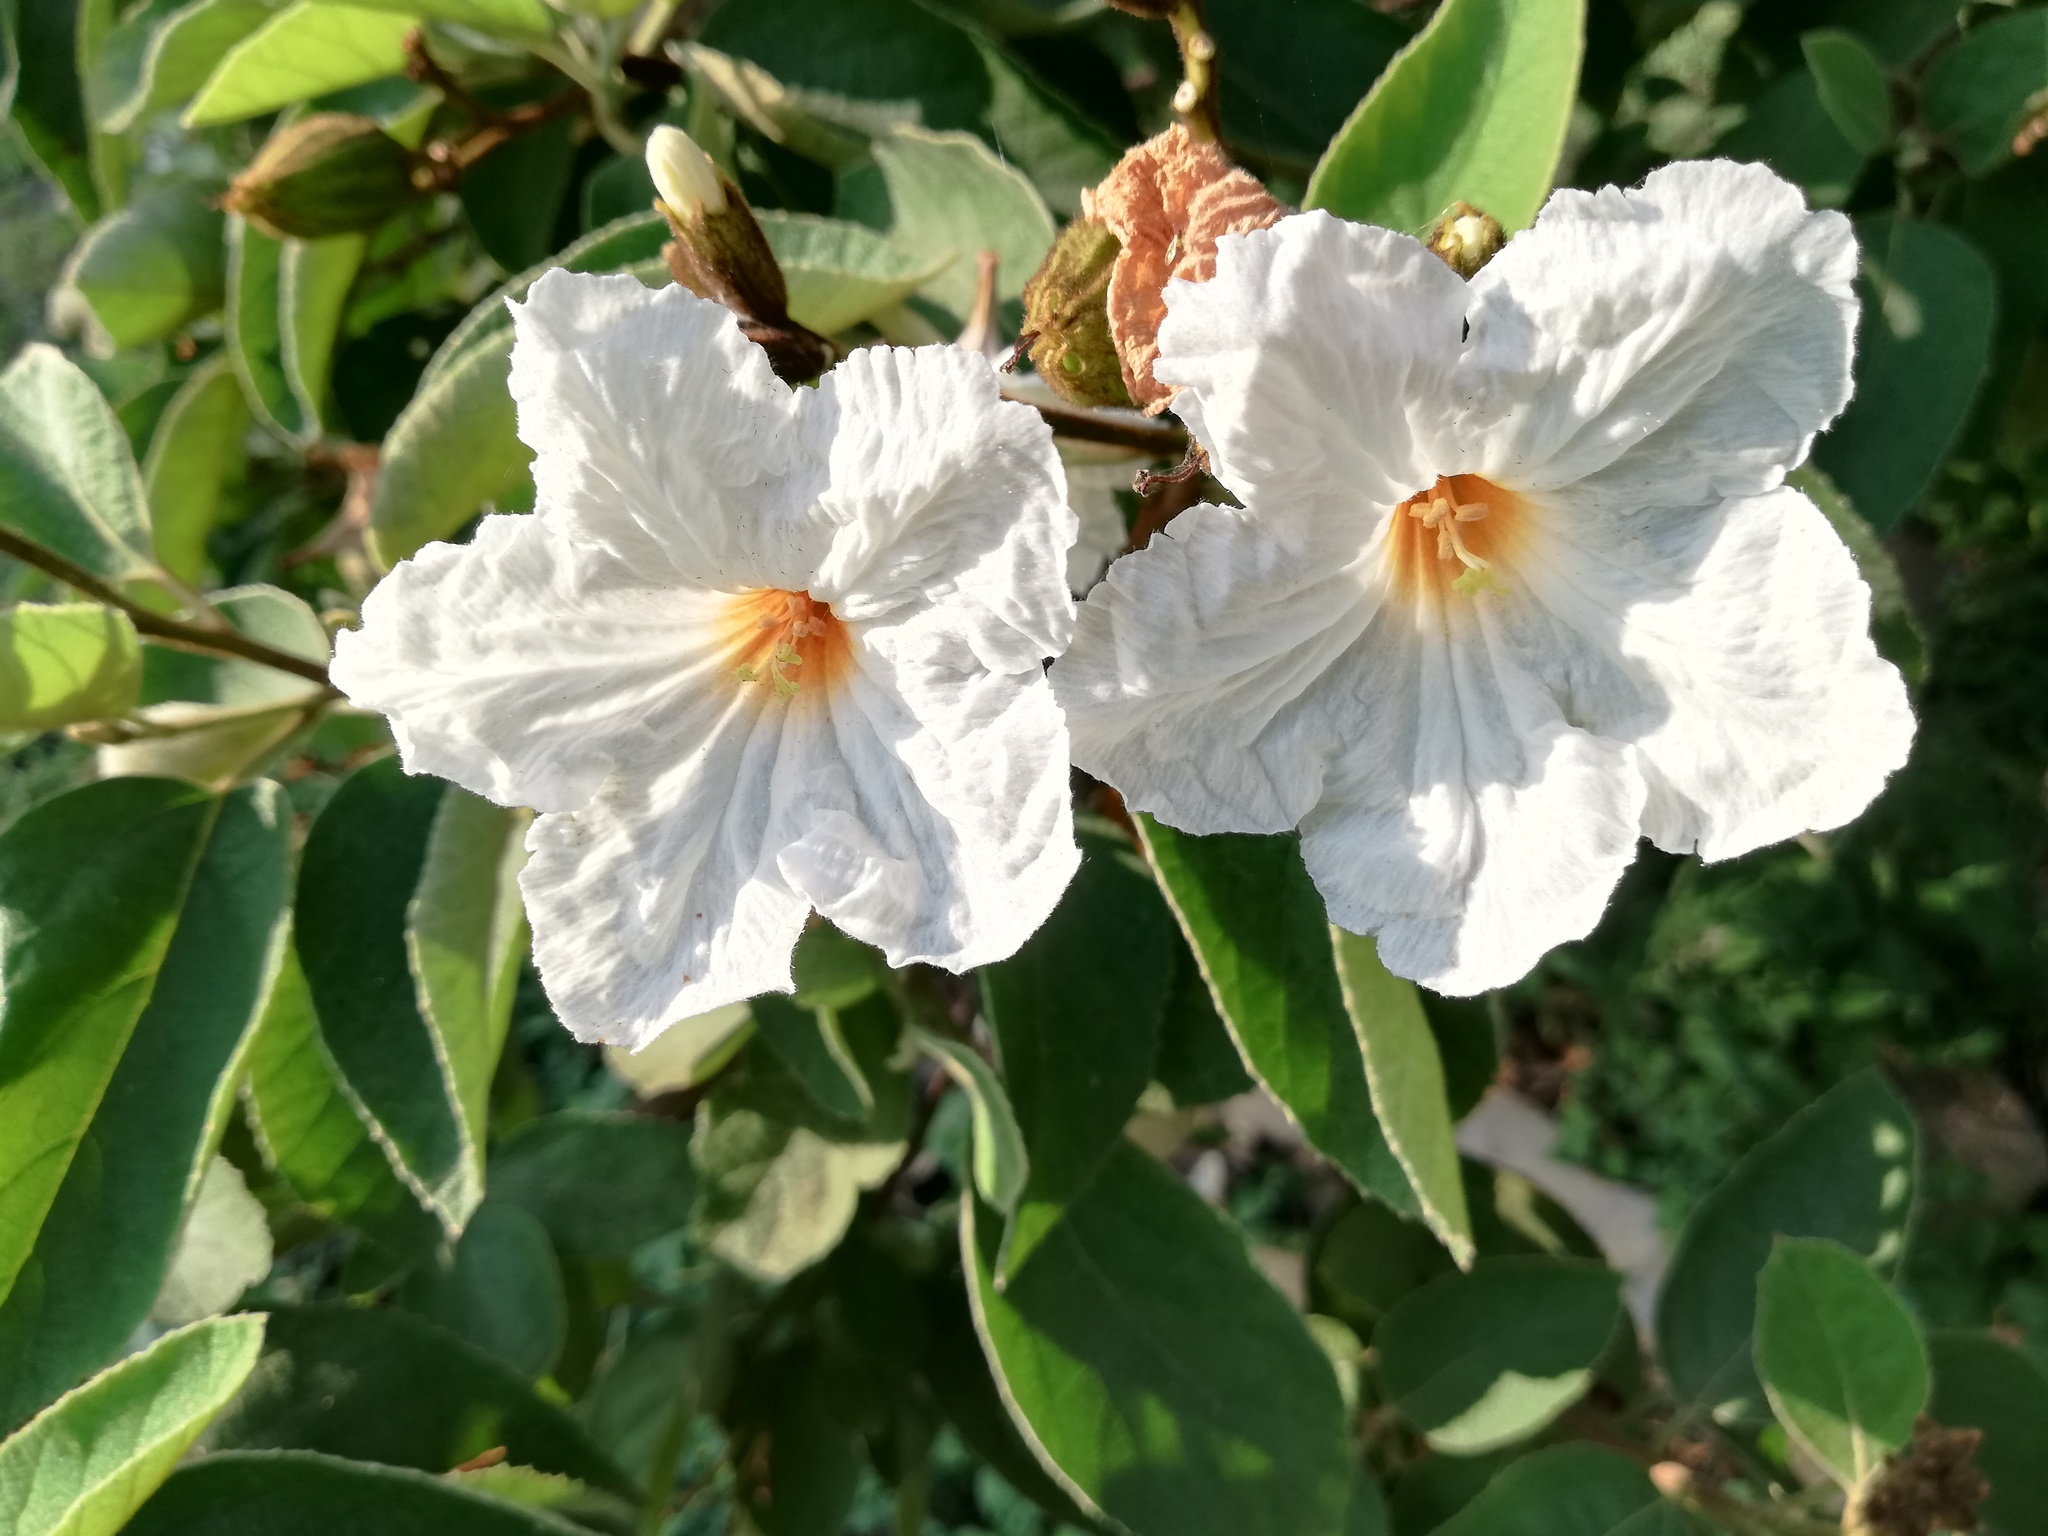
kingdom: Plantae
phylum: Tracheophyta
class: Magnoliopsida
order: Boraginales
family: Cordiaceae
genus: Cordia
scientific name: Cordia boissieri
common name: Mexican-olive
